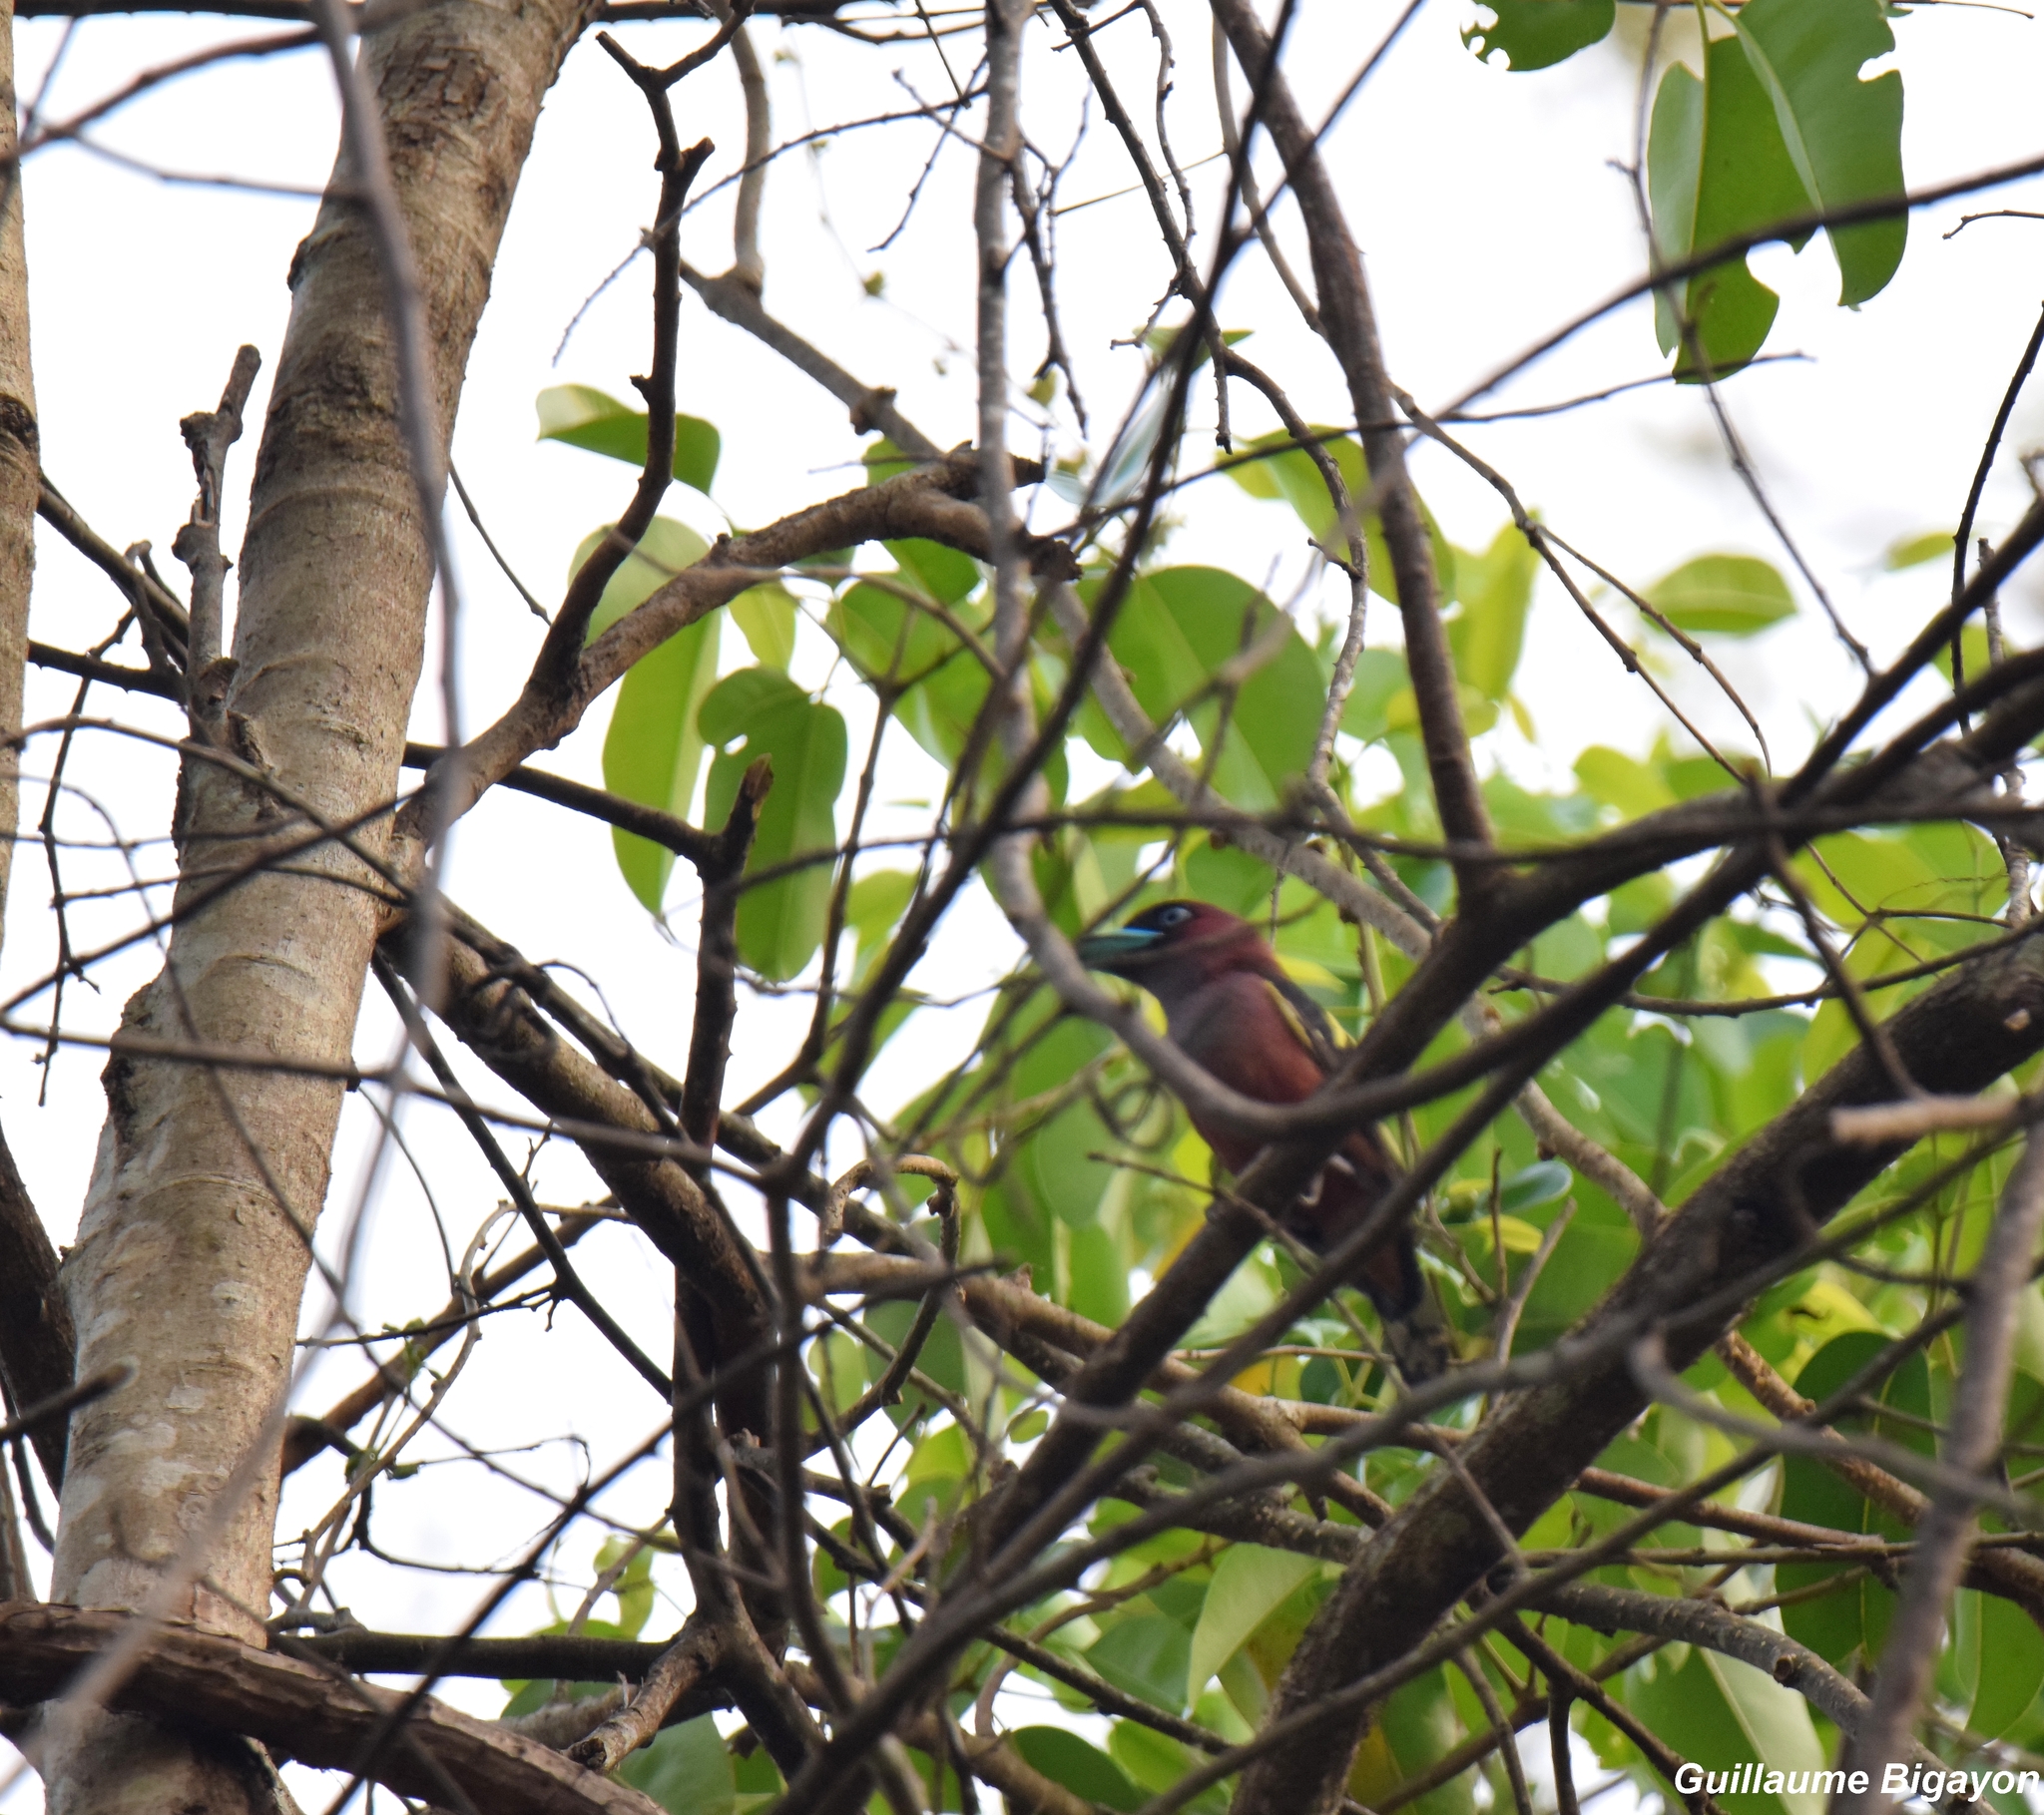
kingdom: Animalia
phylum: Chordata
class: Aves
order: Passeriformes
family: Eurylaimidae
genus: Eurylaimus
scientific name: Eurylaimus javanicus
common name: Banded broadbill
